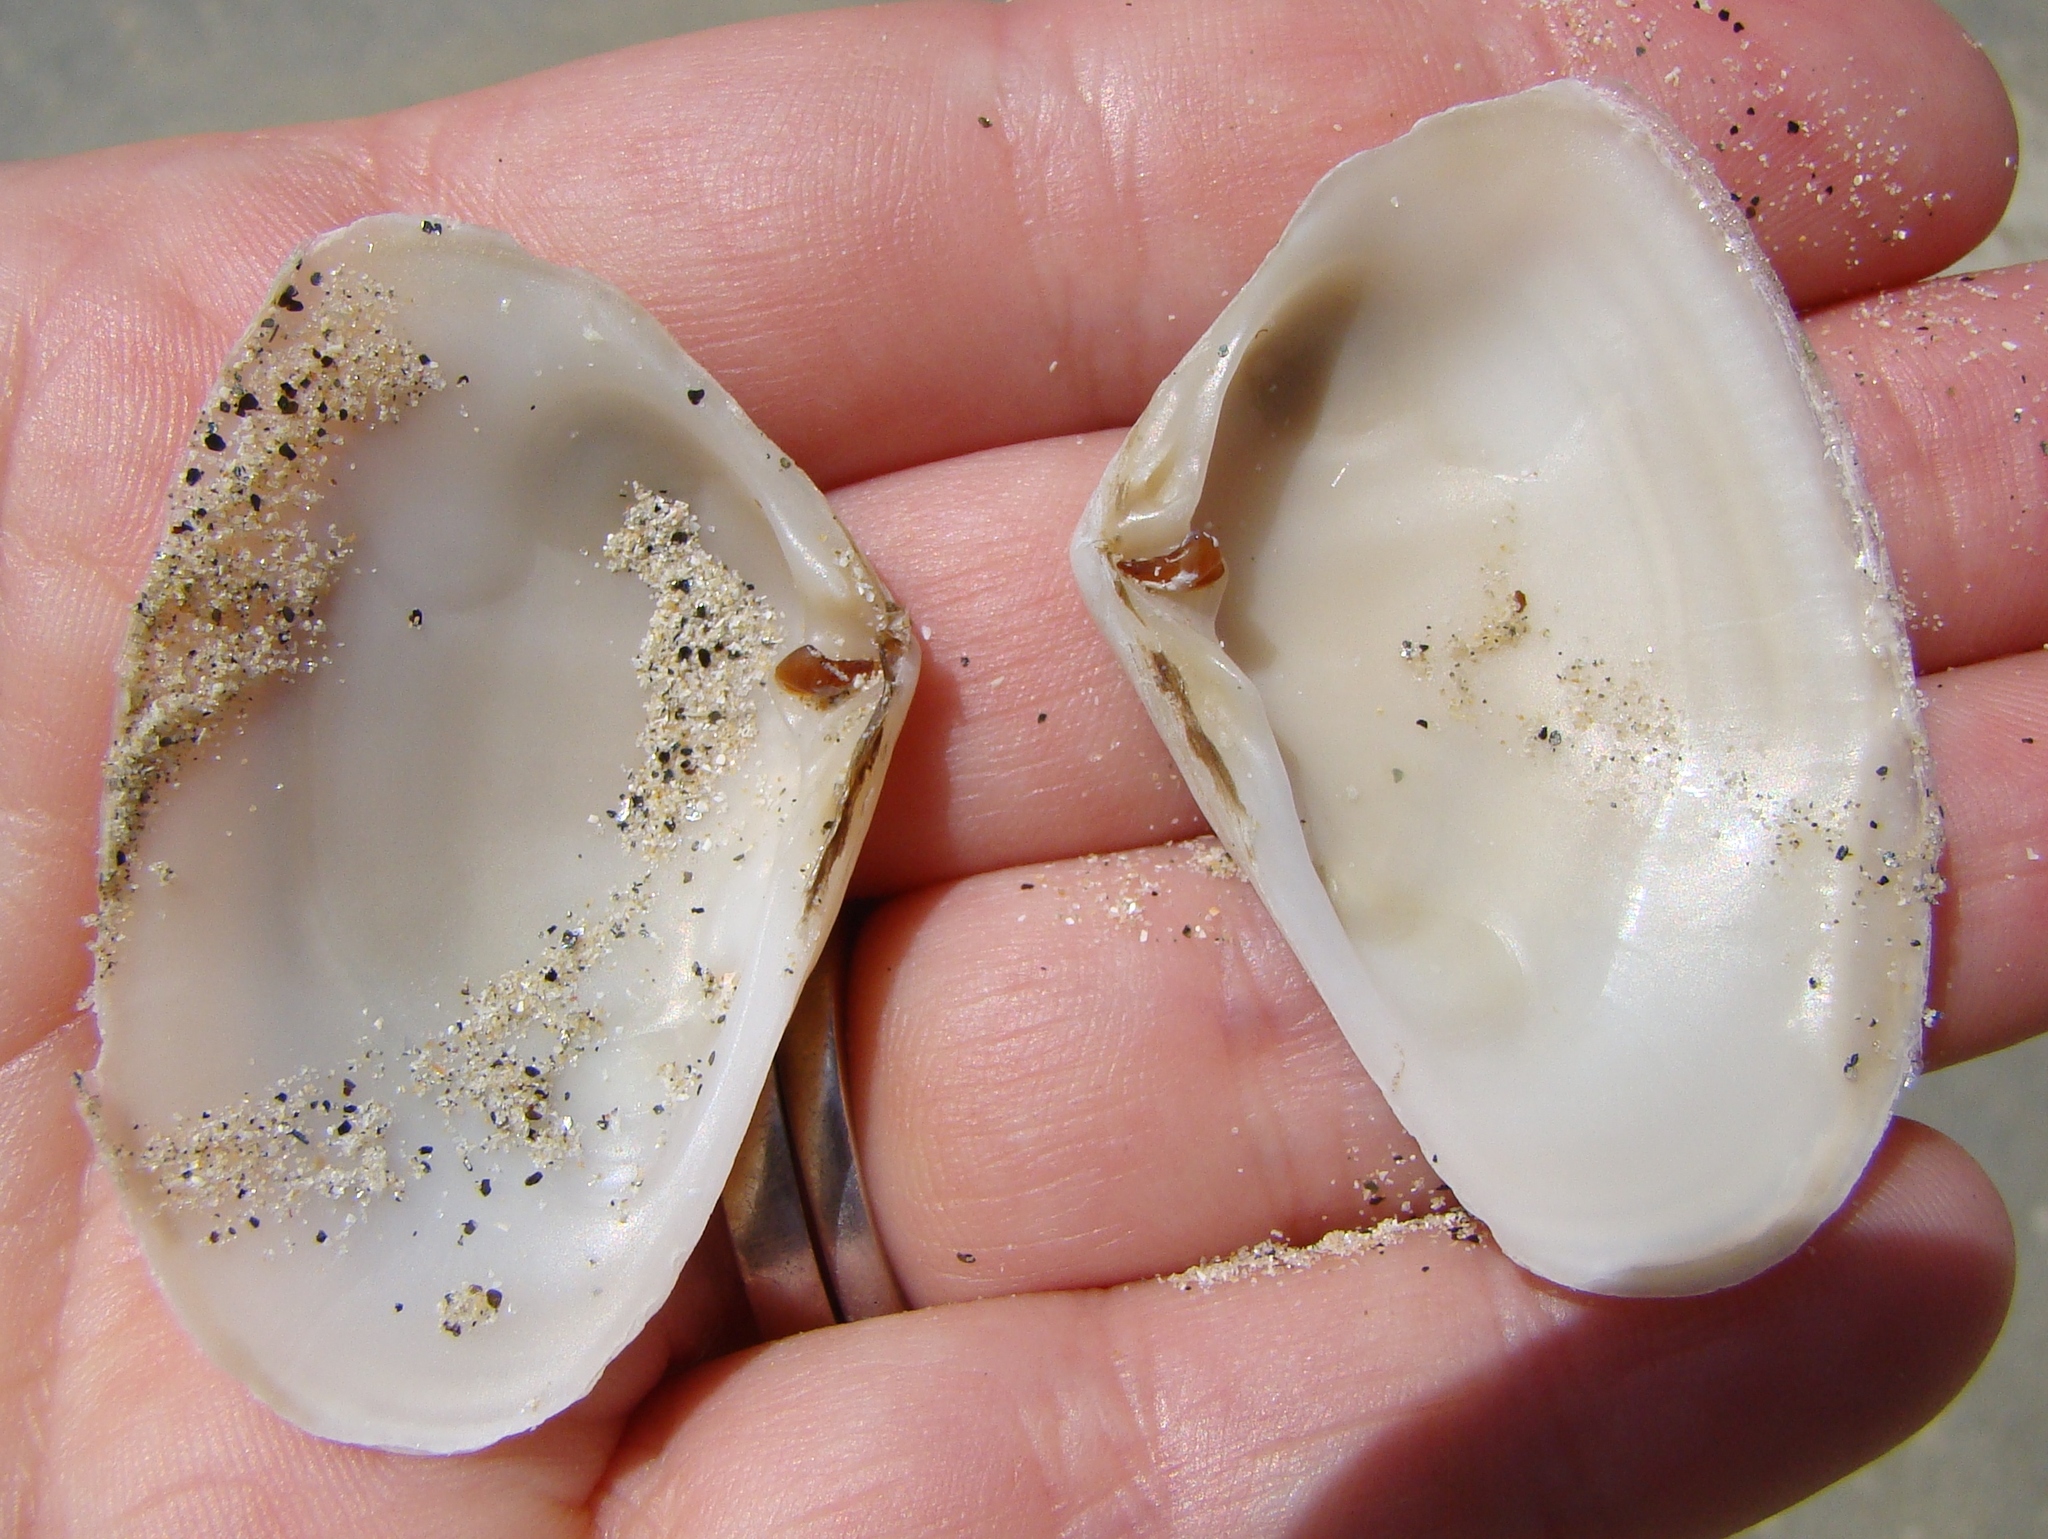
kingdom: Animalia
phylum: Mollusca
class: Bivalvia
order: Venerida
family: Mesodesmatidae
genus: Paphies
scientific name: Paphies subtriangulata
